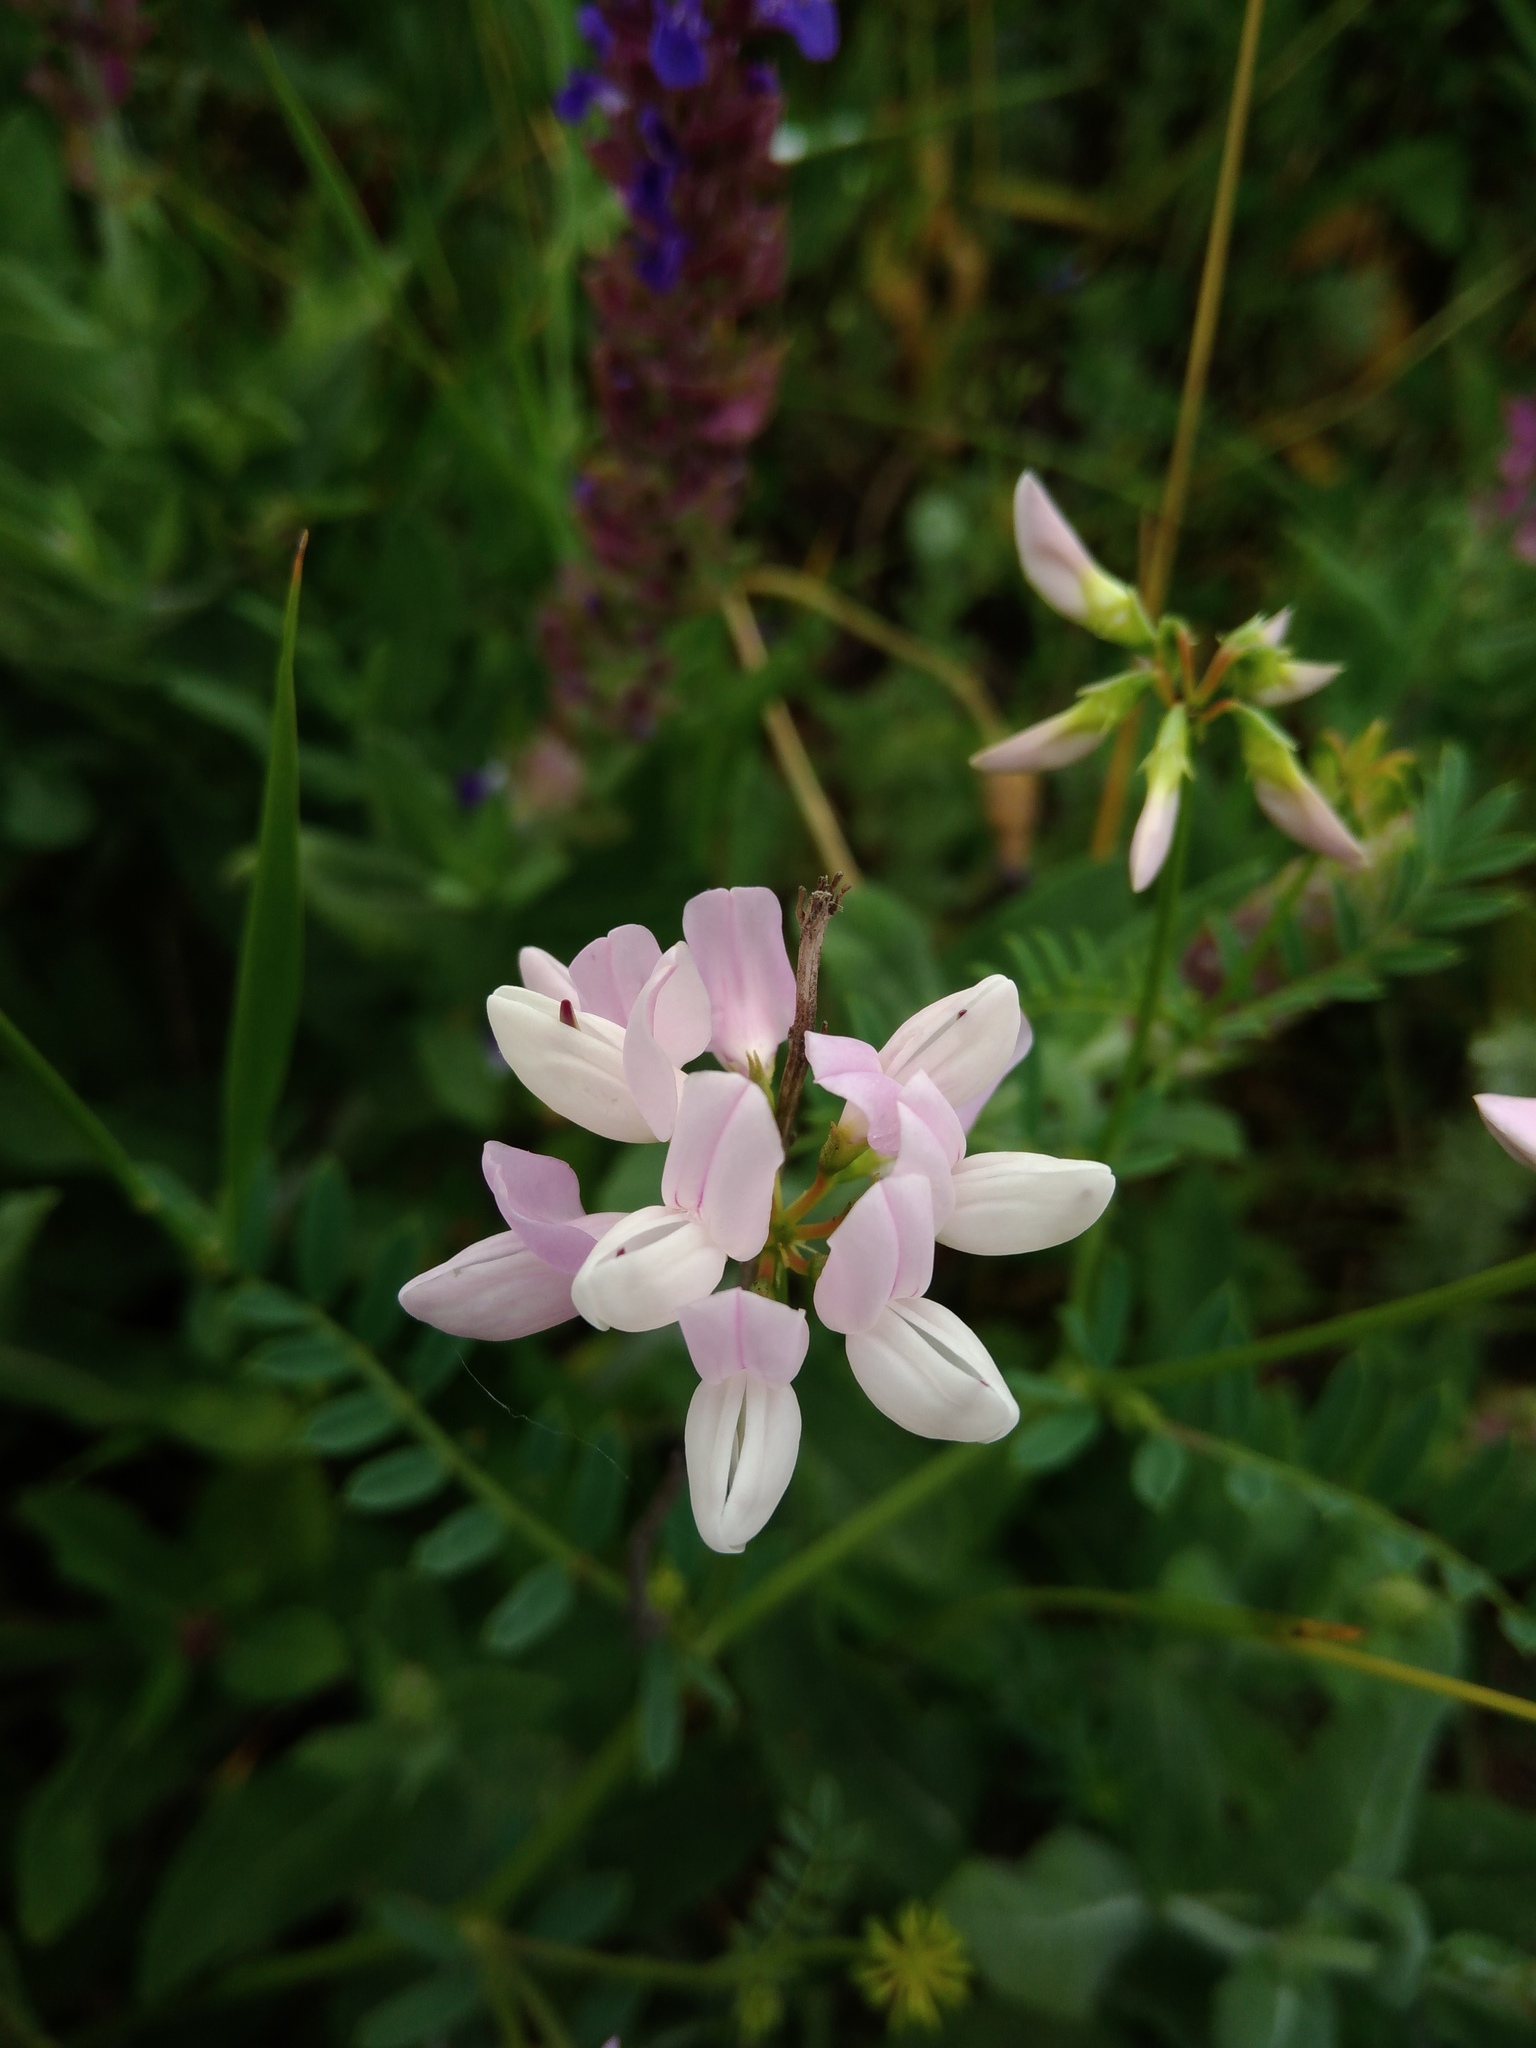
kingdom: Plantae
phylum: Tracheophyta
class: Magnoliopsida
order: Fabales
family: Fabaceae
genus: Coronilla
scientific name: Coronilla varia
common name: Crownvetch
